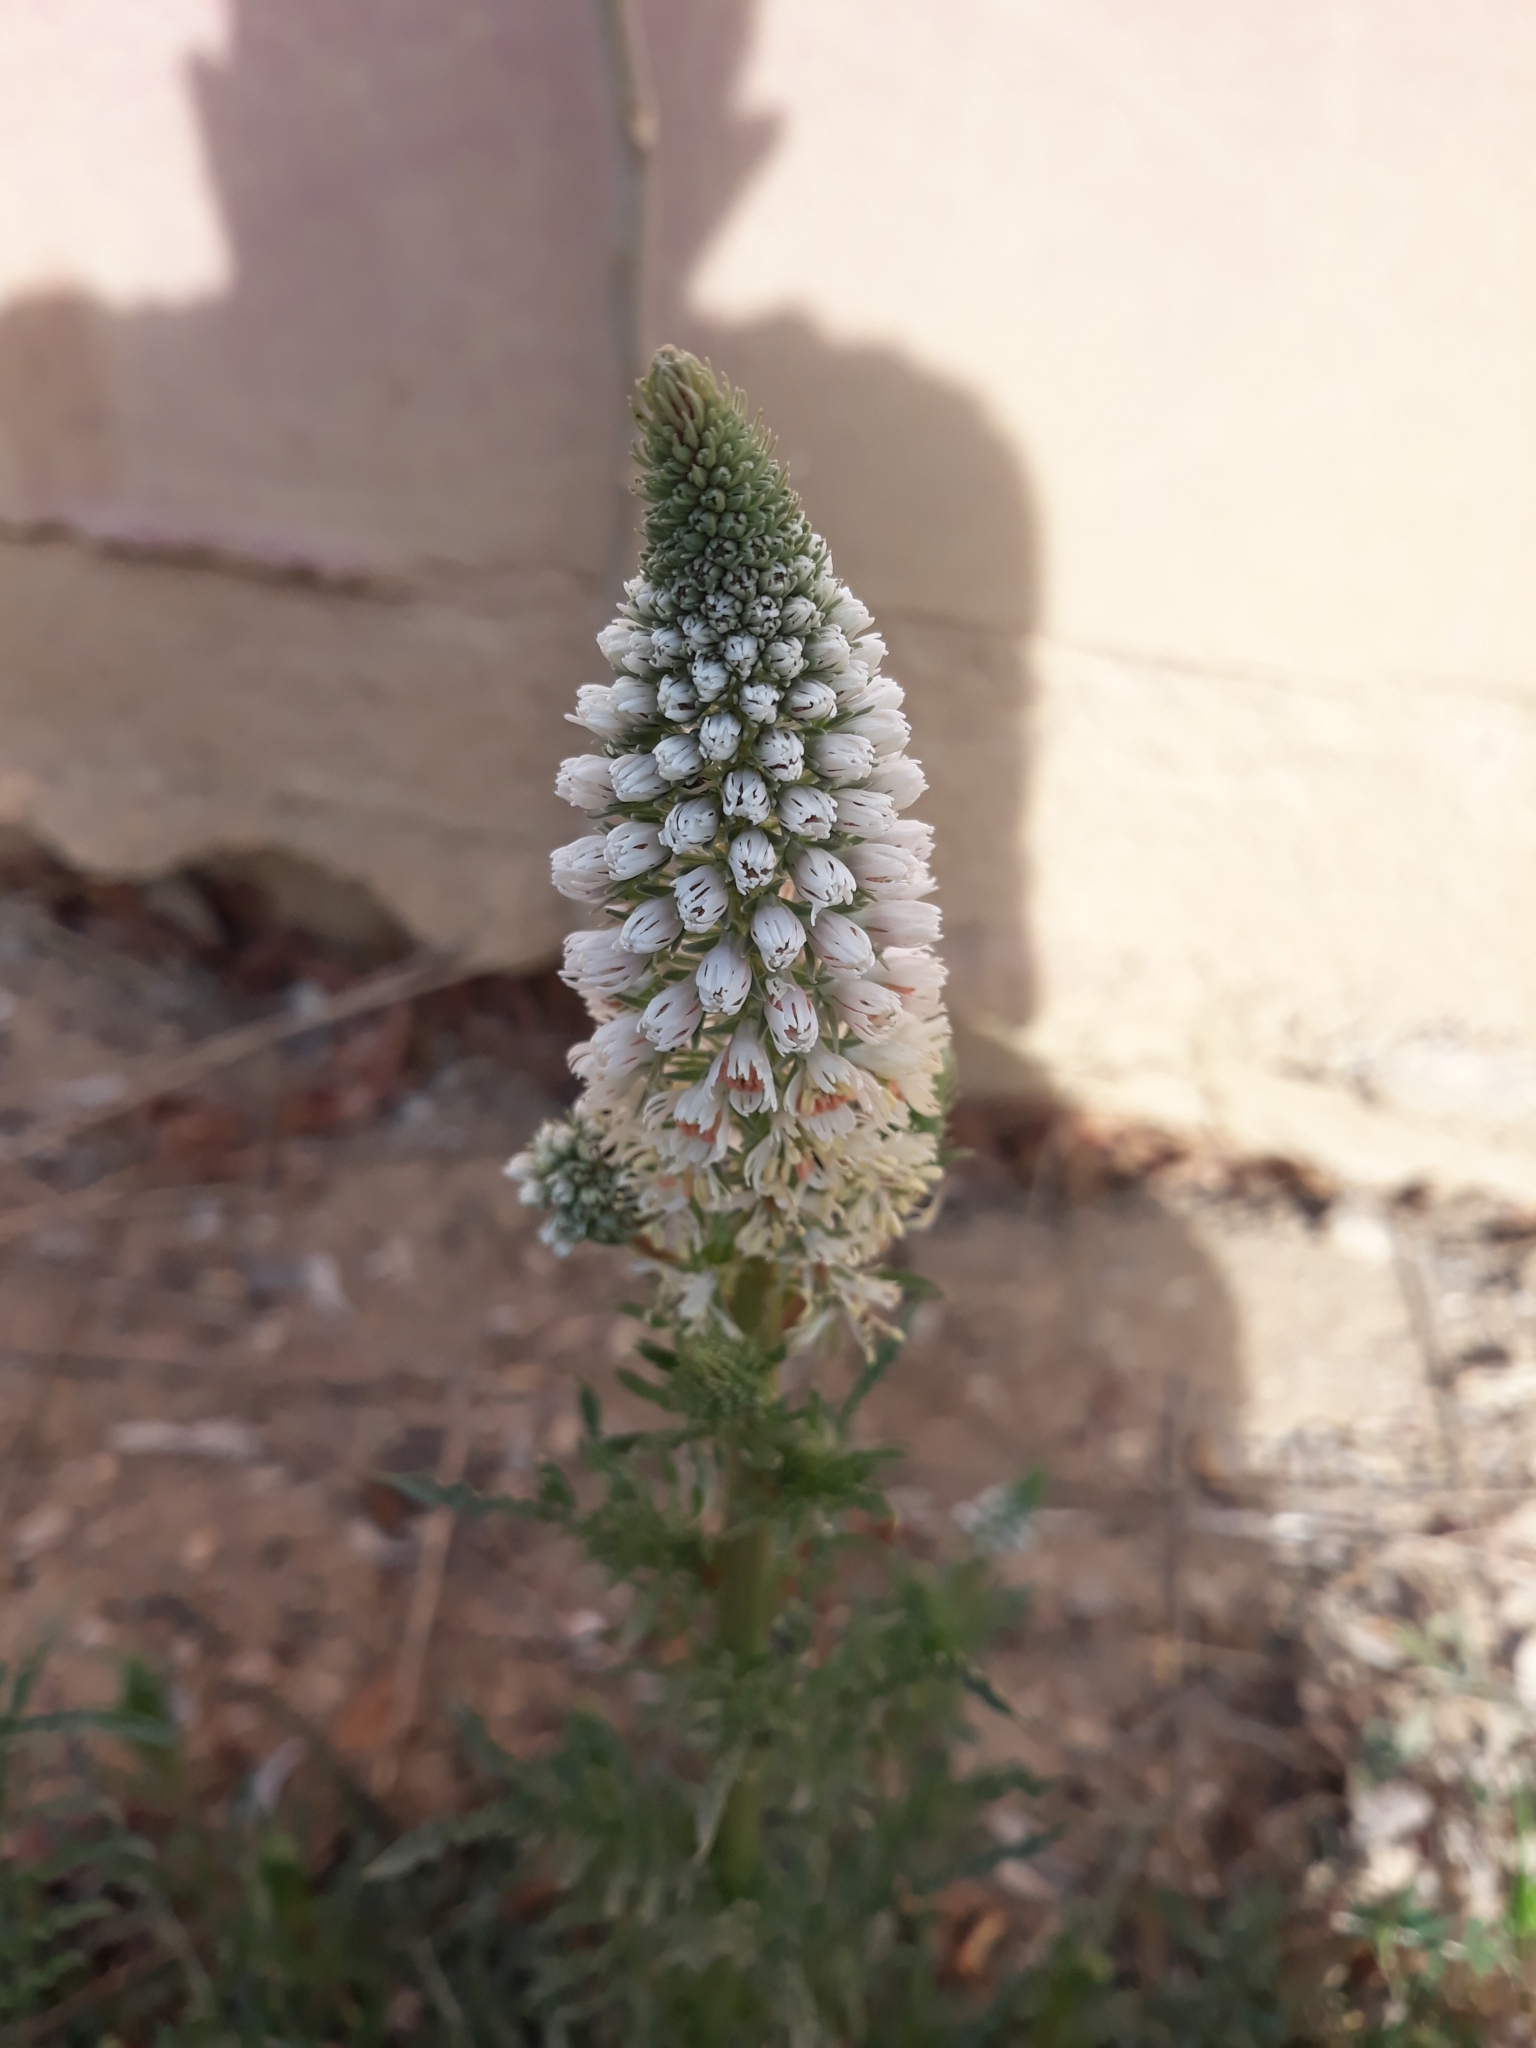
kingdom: Plantae
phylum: Tracheophyta
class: Magnoliopsida
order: Brassicales
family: Resedaceae
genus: Reseda
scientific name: Reseda alba
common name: White mignonette
